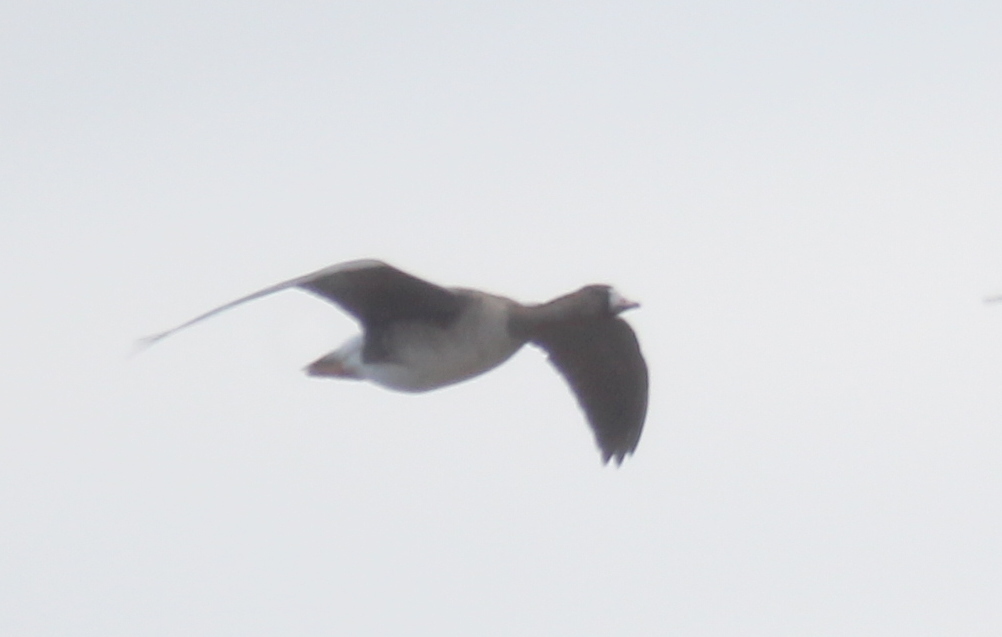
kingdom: Animalia
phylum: Chordata
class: Aves
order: Anseriformes
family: Anatidae
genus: Anser
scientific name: Anser albifrons
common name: Greater white-fronted goose
